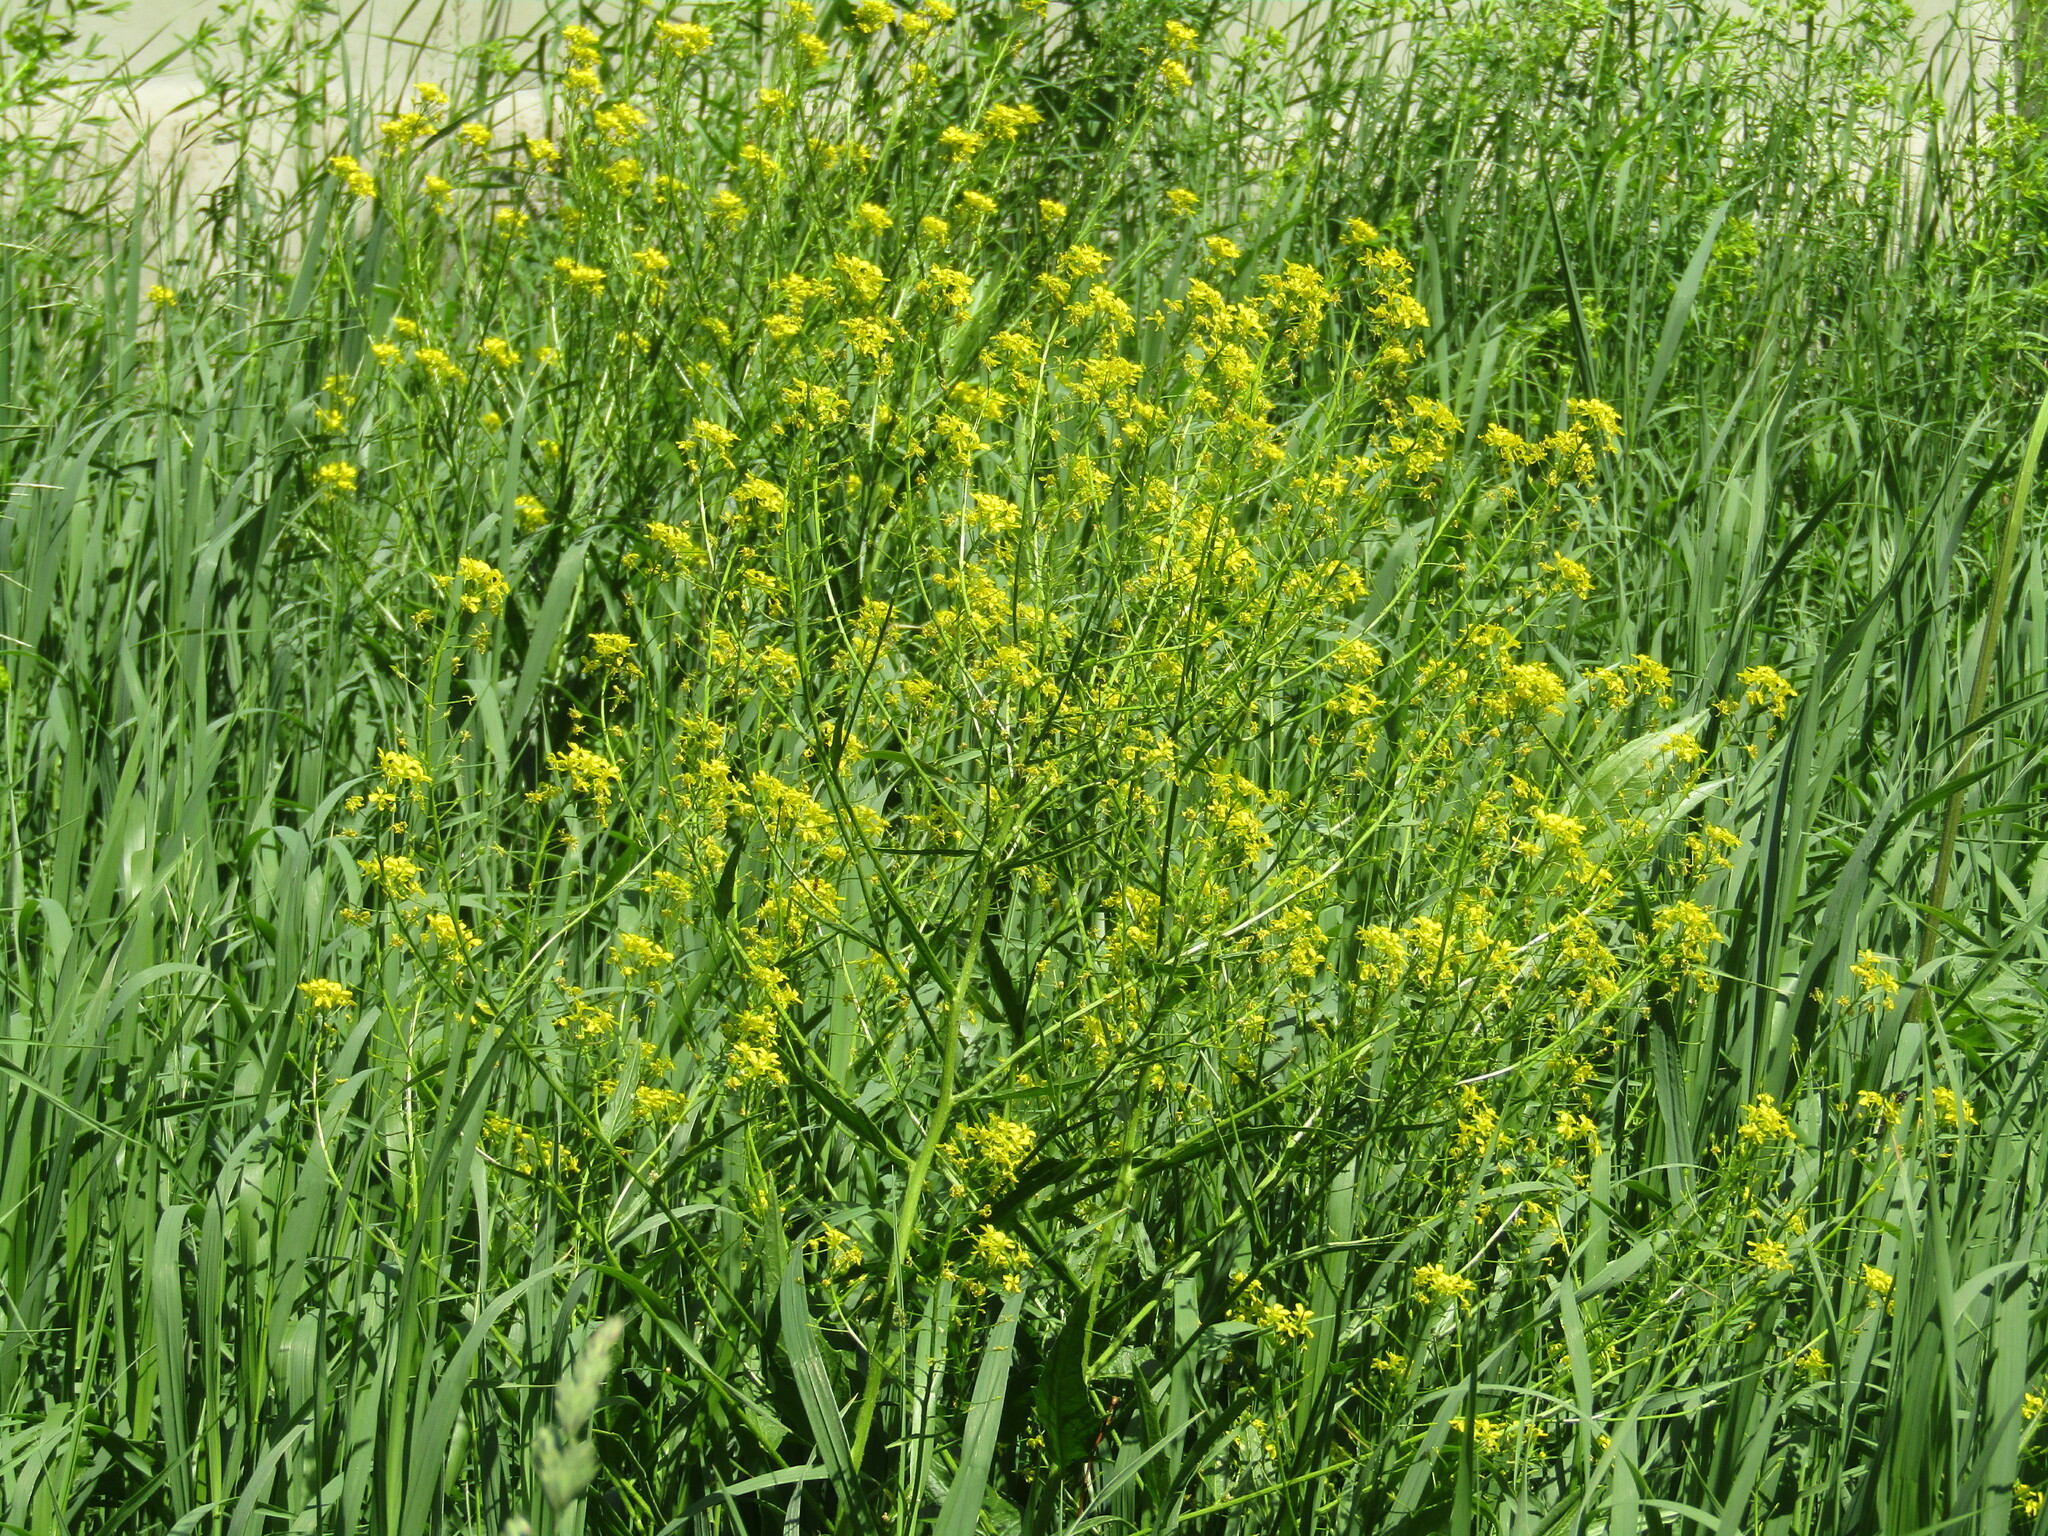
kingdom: Plantae
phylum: Tracheophyta
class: Magnoliopsida
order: Brassicales
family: Brassicaceae
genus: Bunias
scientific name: Bunias orientalis
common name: Warty-cabbage
